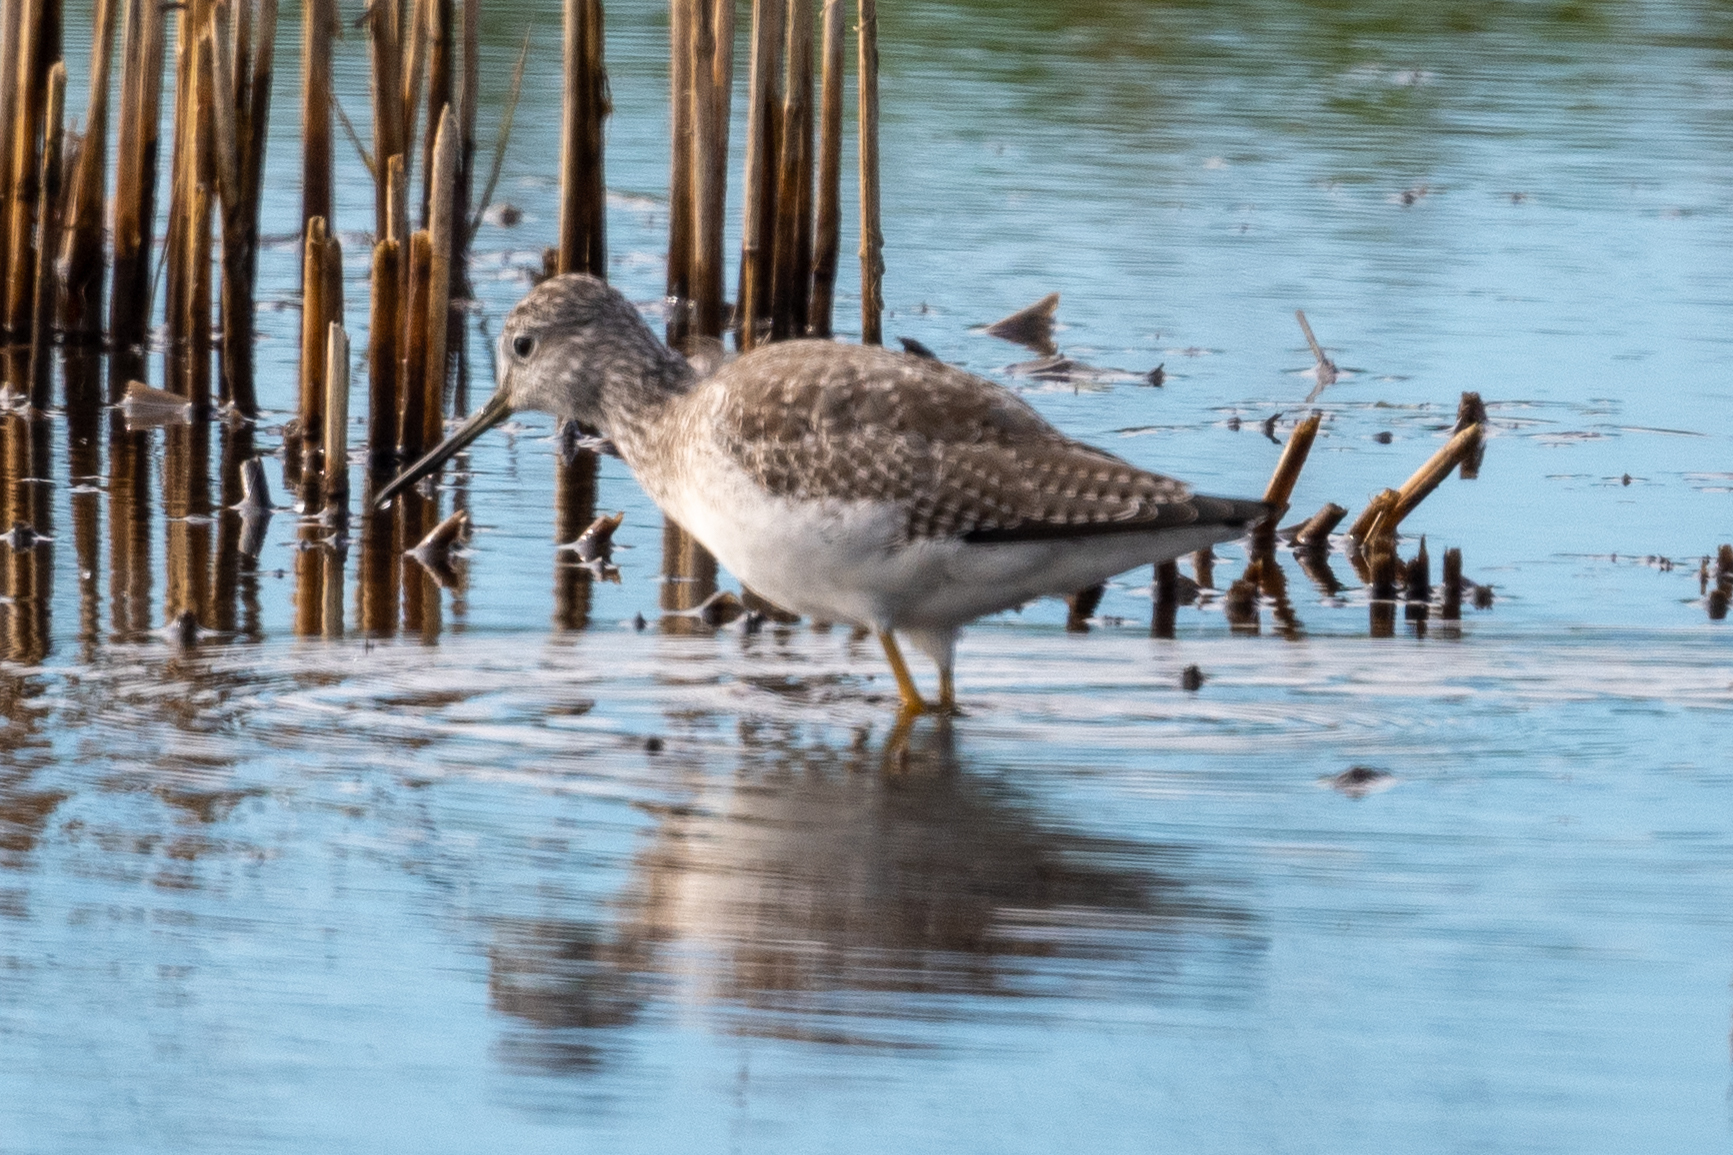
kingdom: Animalia
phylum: Chordata
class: Aves
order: Charadriiformes
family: Scolopacidae
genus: Tringa
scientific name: Tringa melanoleuca
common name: Greater yellowlegs
